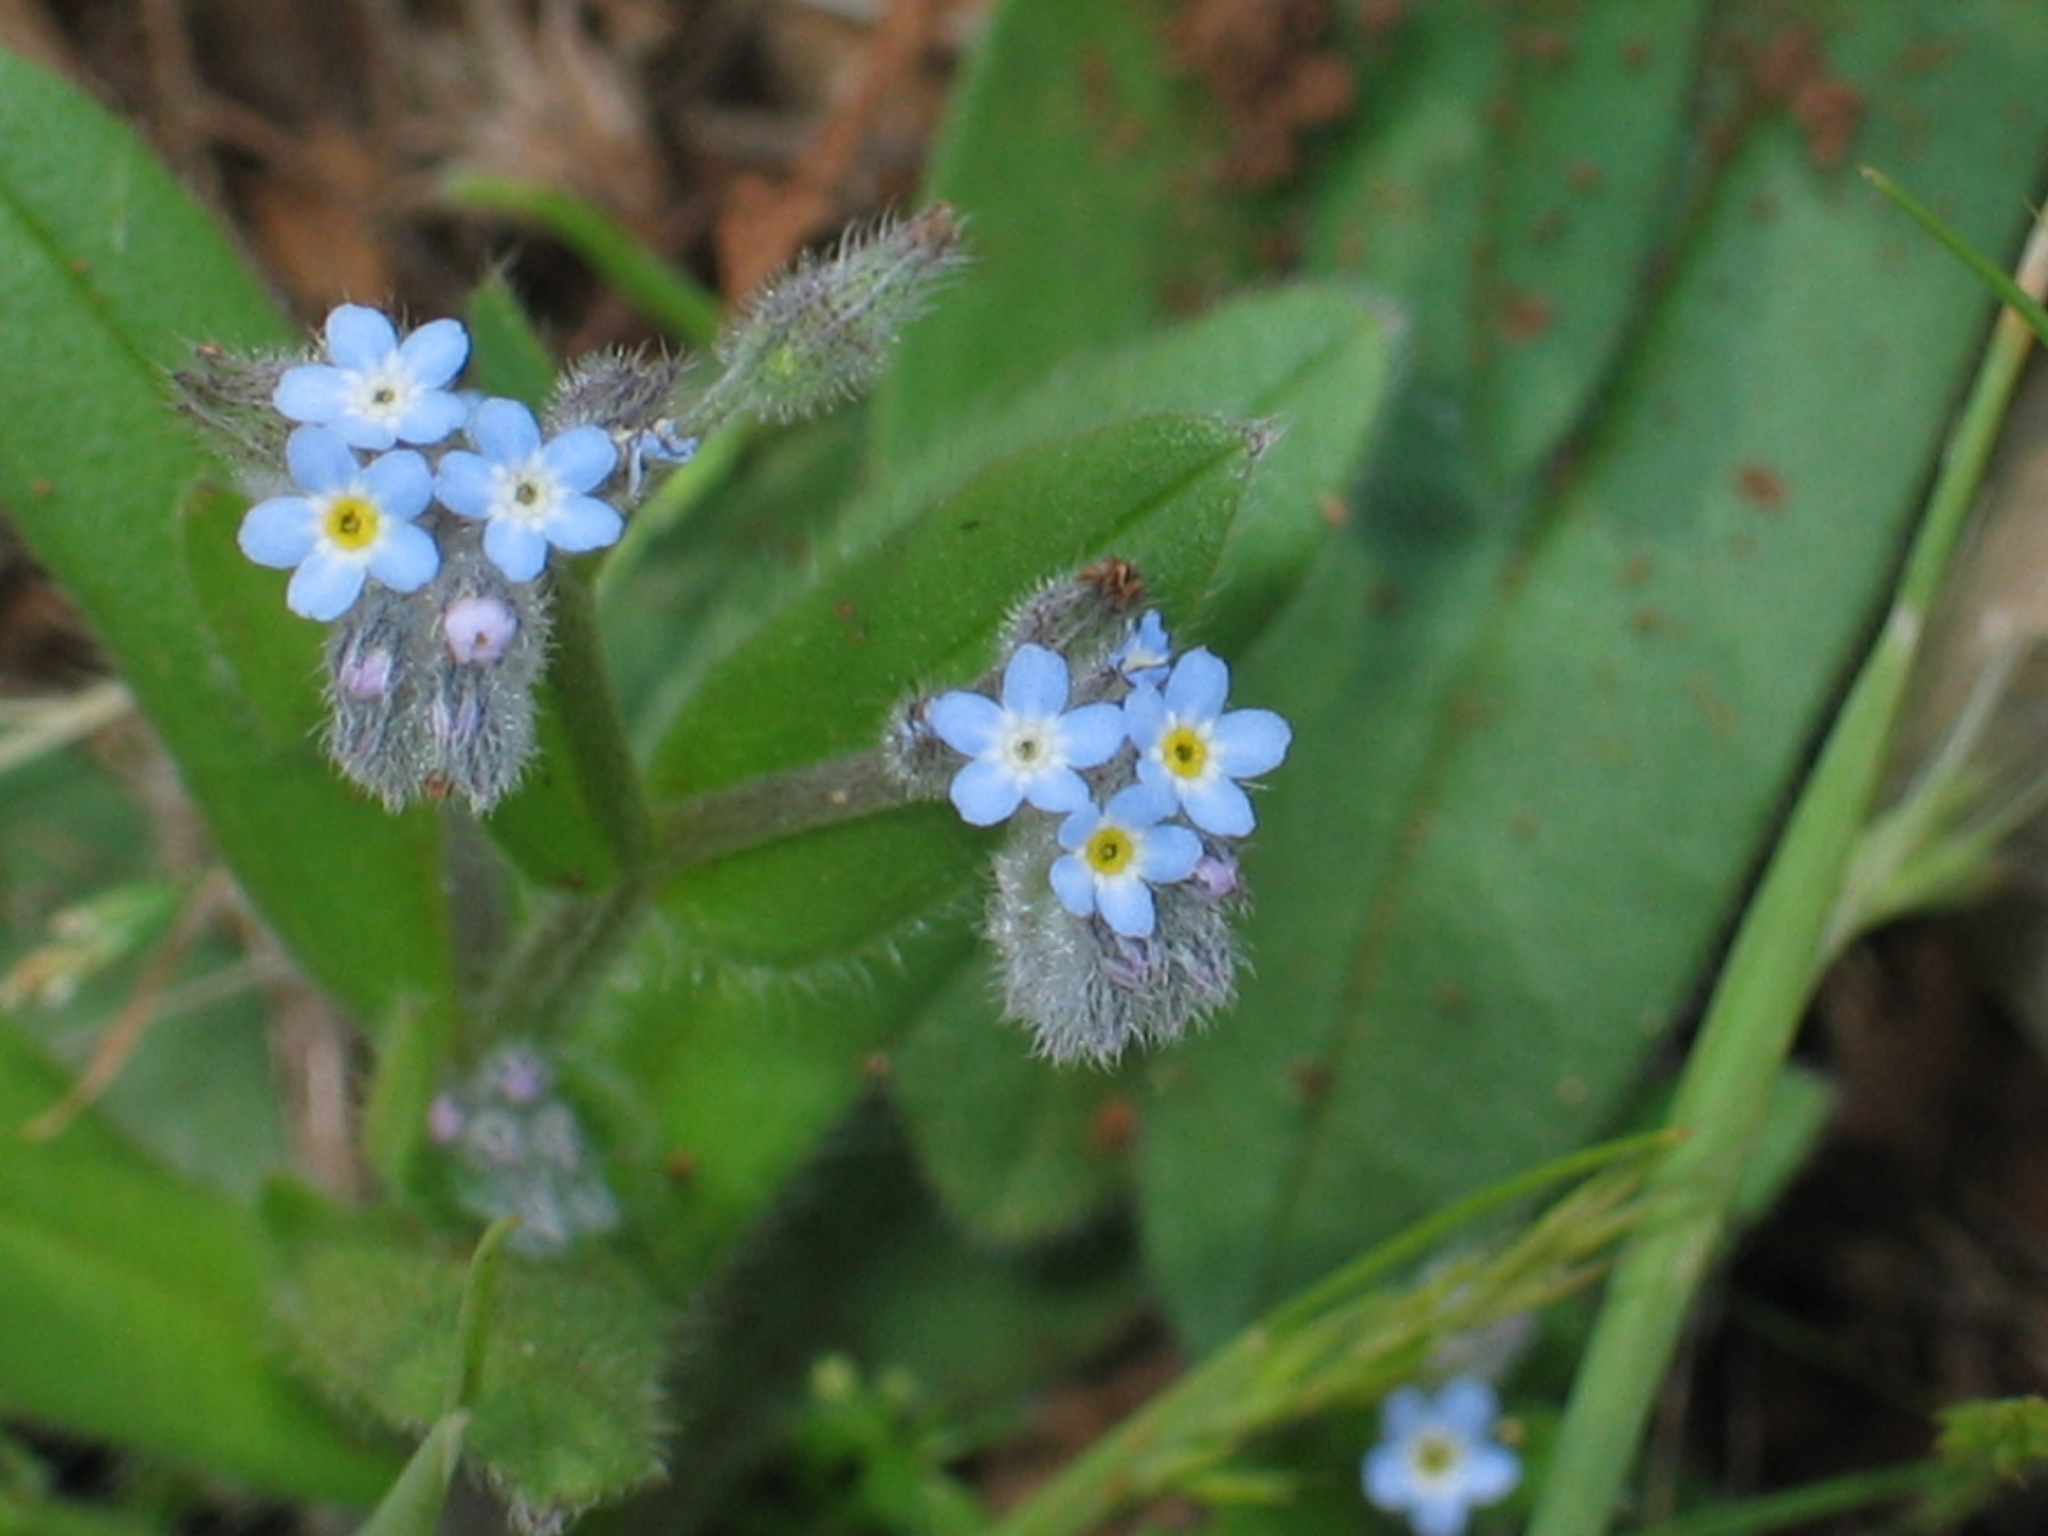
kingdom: Plantae
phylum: Tracheophyta
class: Magnoliopsida
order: Boraginales
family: Boraginaceae
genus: Myosotis
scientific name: Myosotis arvensis
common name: Field forget-me-not
